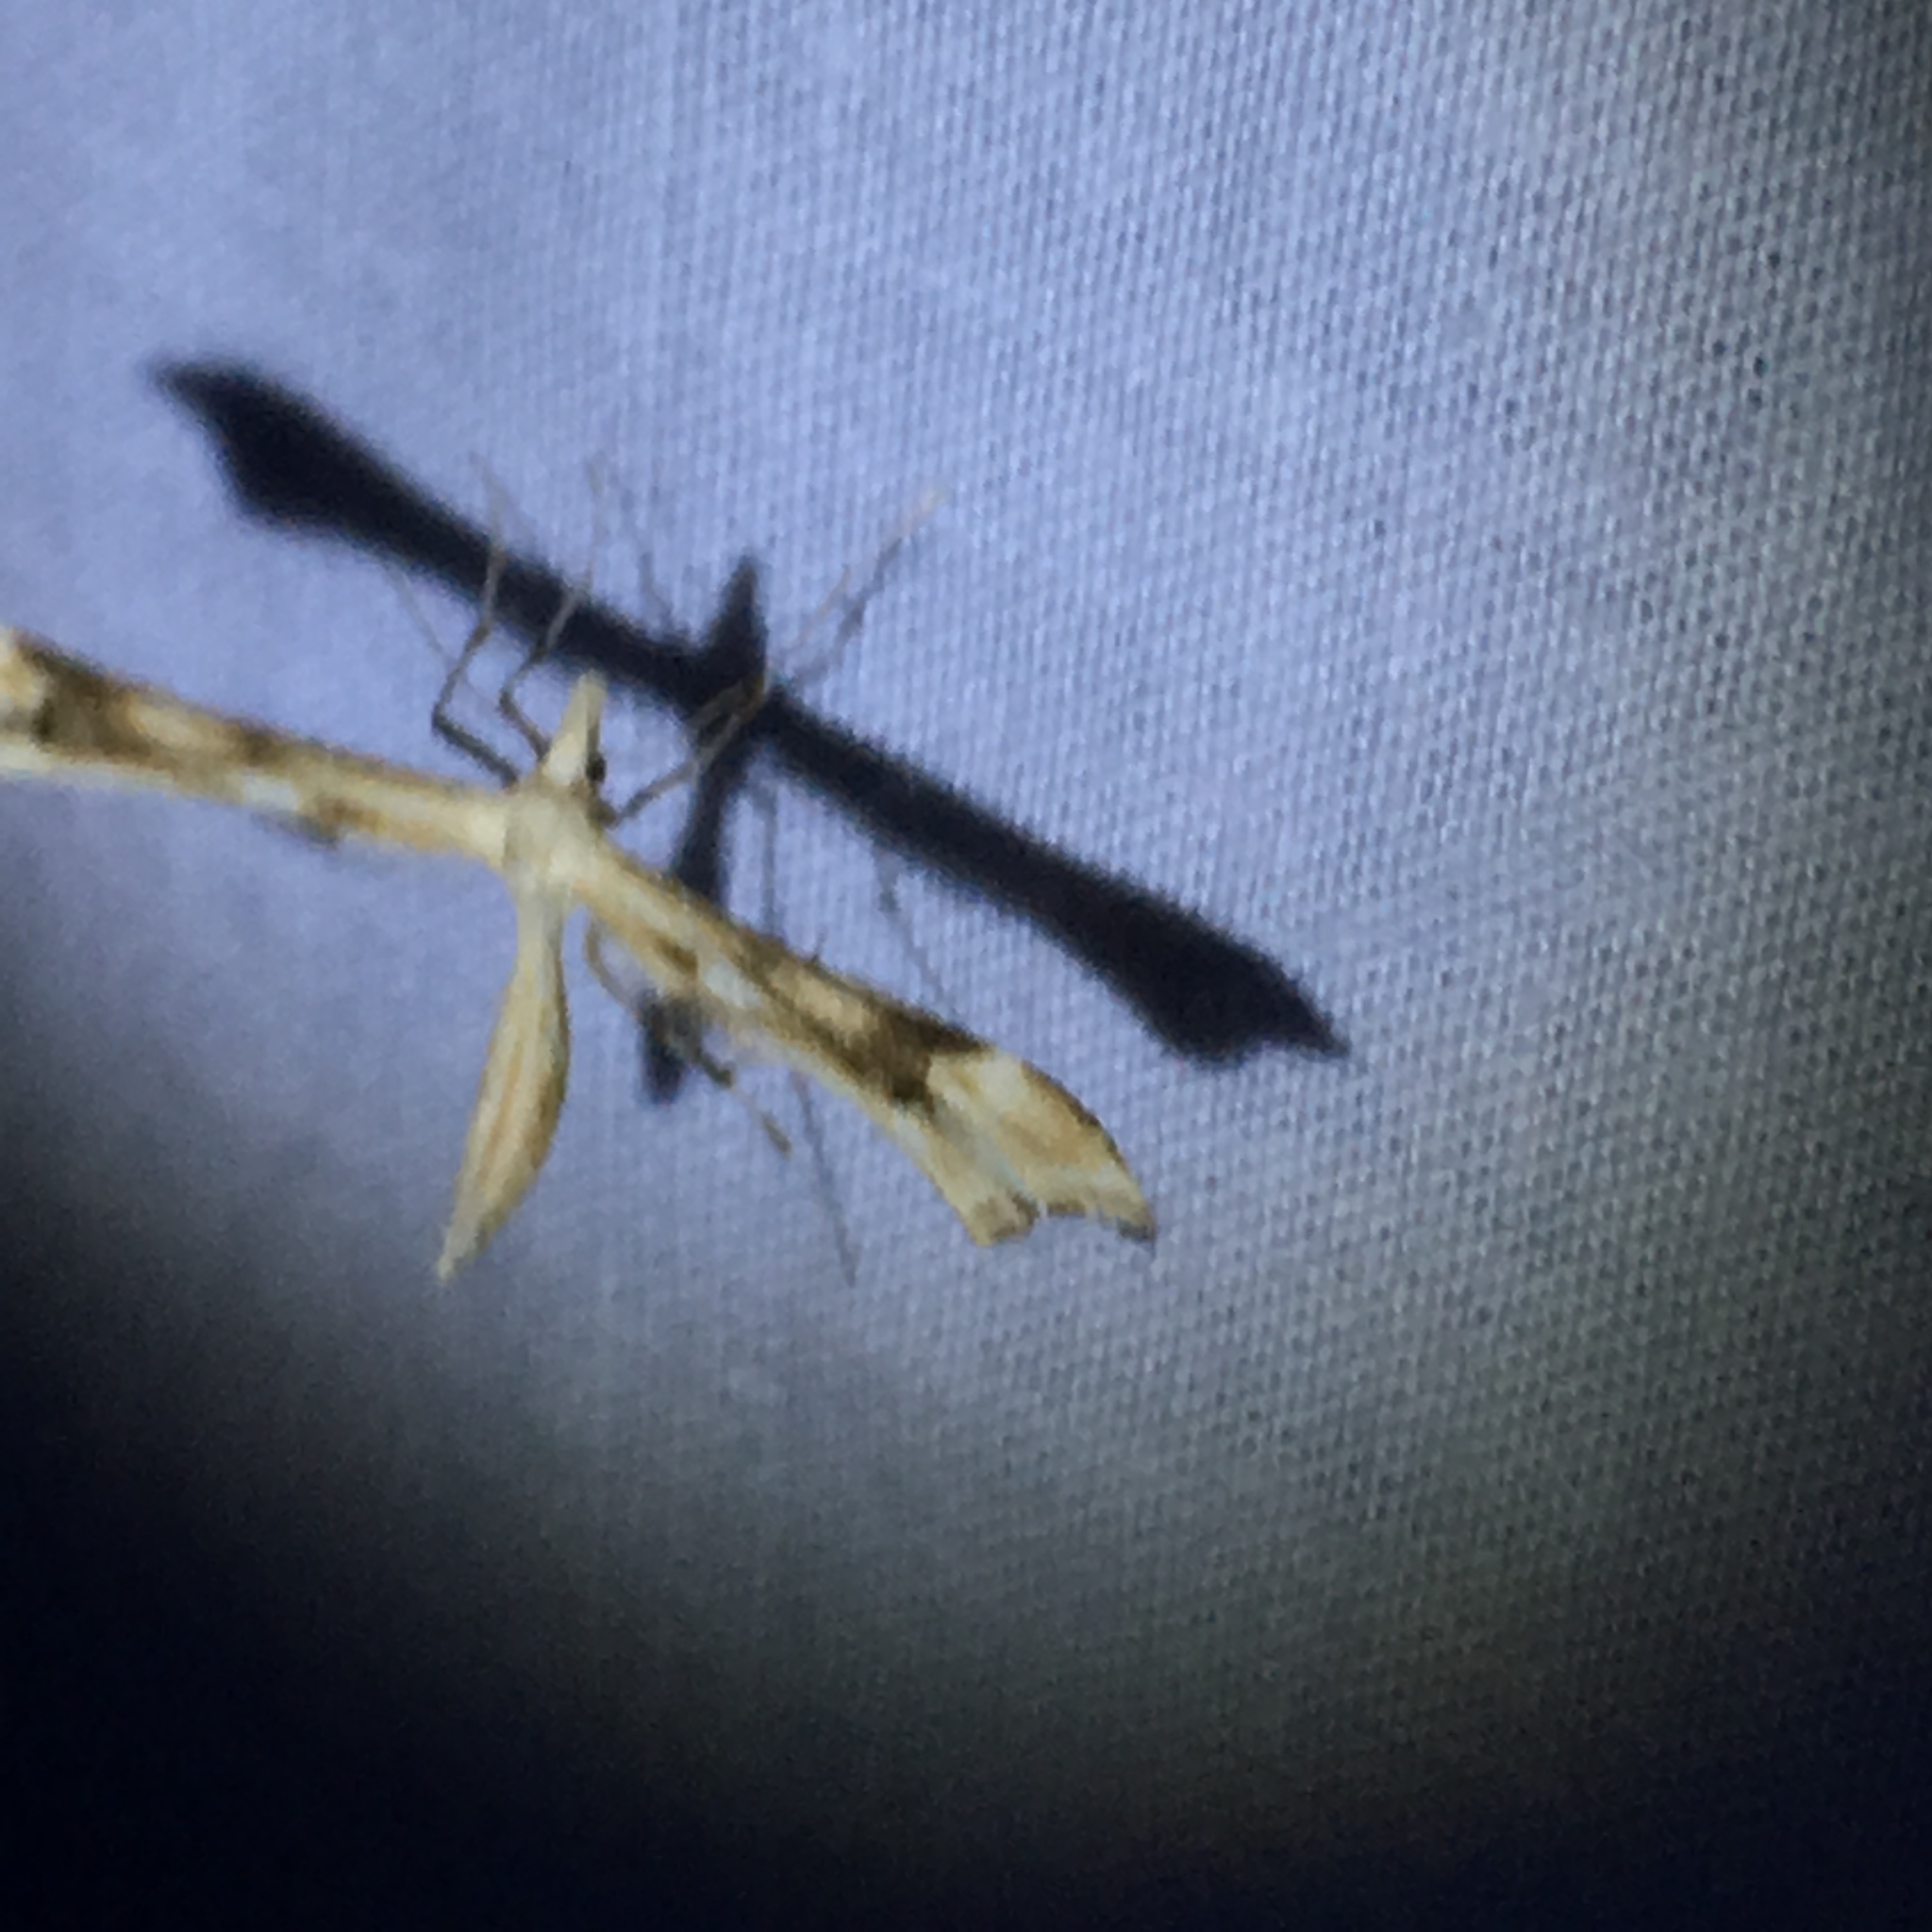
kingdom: Animalia
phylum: Arthropoda
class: Insecta
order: Lepidoptera
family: Pterophoridae
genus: Gillmeria
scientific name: Gillmeria ochrodactyla
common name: Tansy plume
